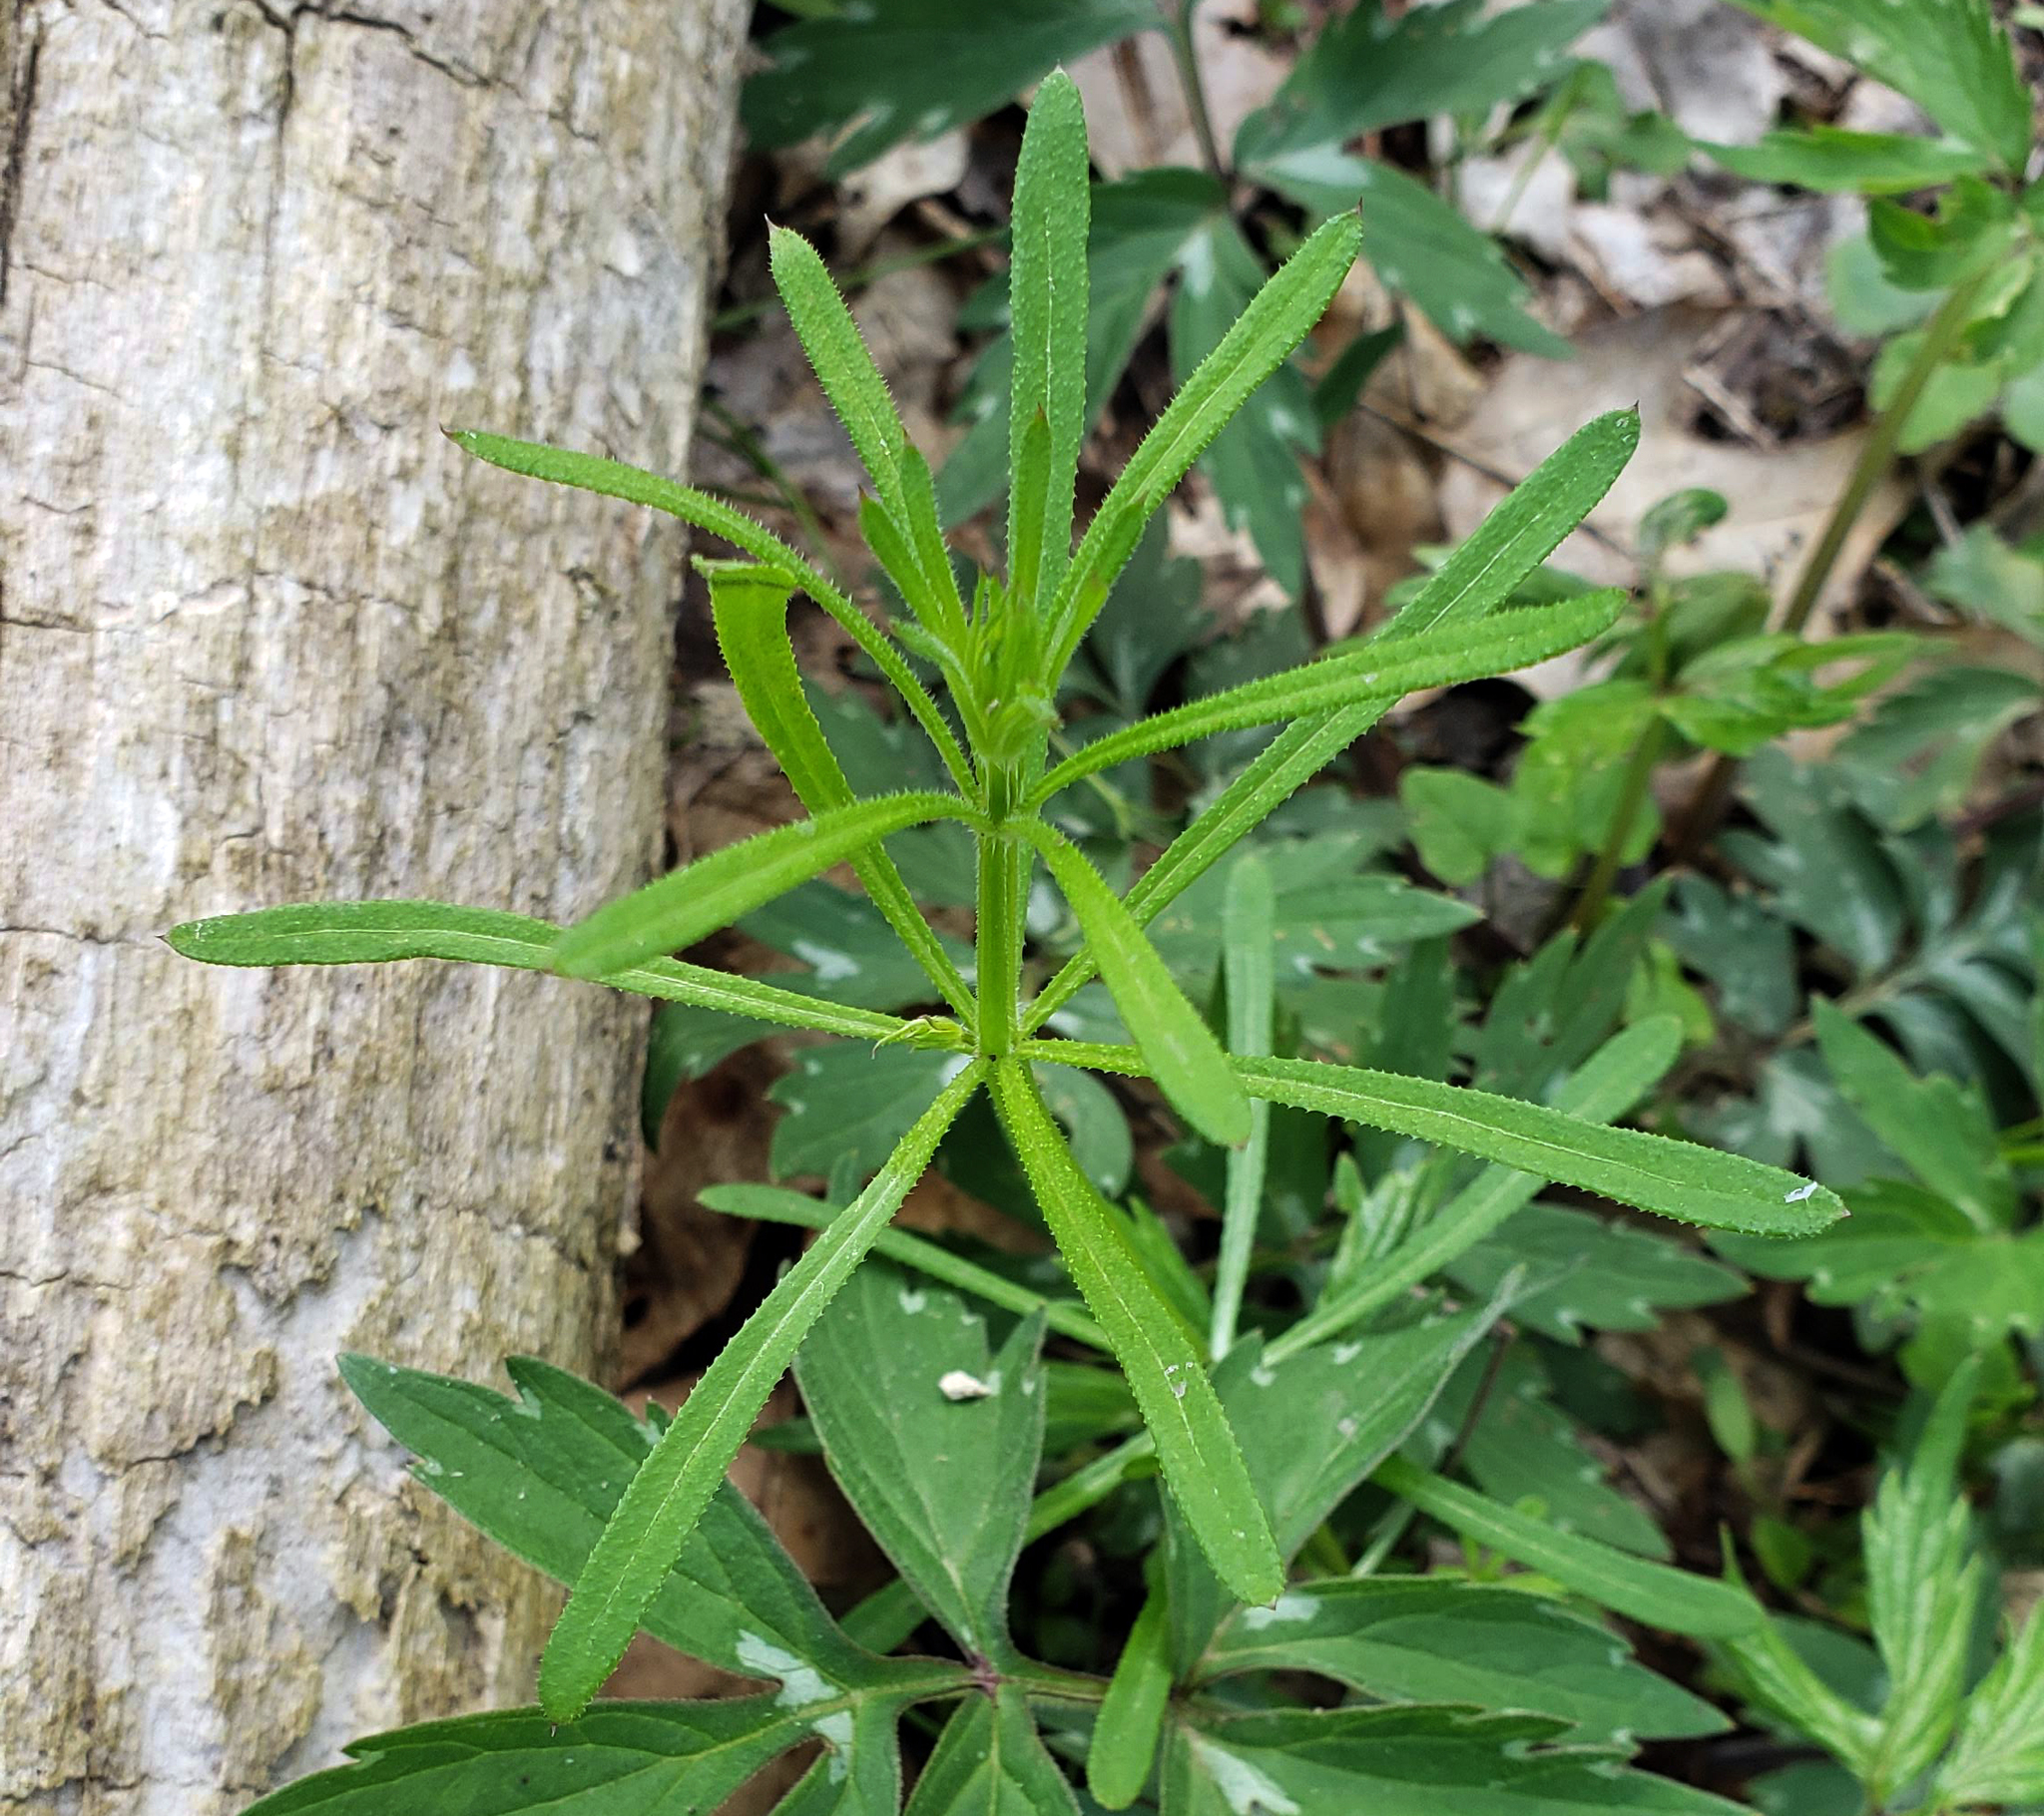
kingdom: Plantae
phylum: Tracheophyta
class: Magnoliopsida
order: Gentianales
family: Rubiaceae
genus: Galium
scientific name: Galium aparine
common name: Cleavers
